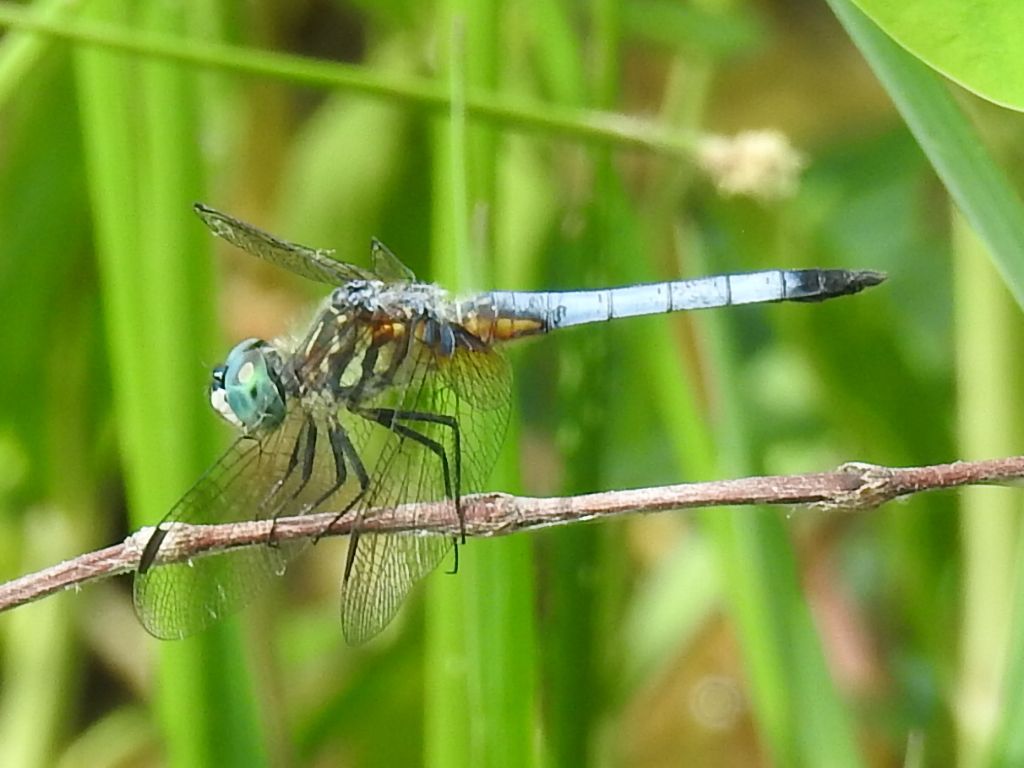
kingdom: Animalia
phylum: Arthropoda
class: Insecta
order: Odonata
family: Libellulidae
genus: Pachydiplax
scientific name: Pachydiplax longipennis
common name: Blue dasher
